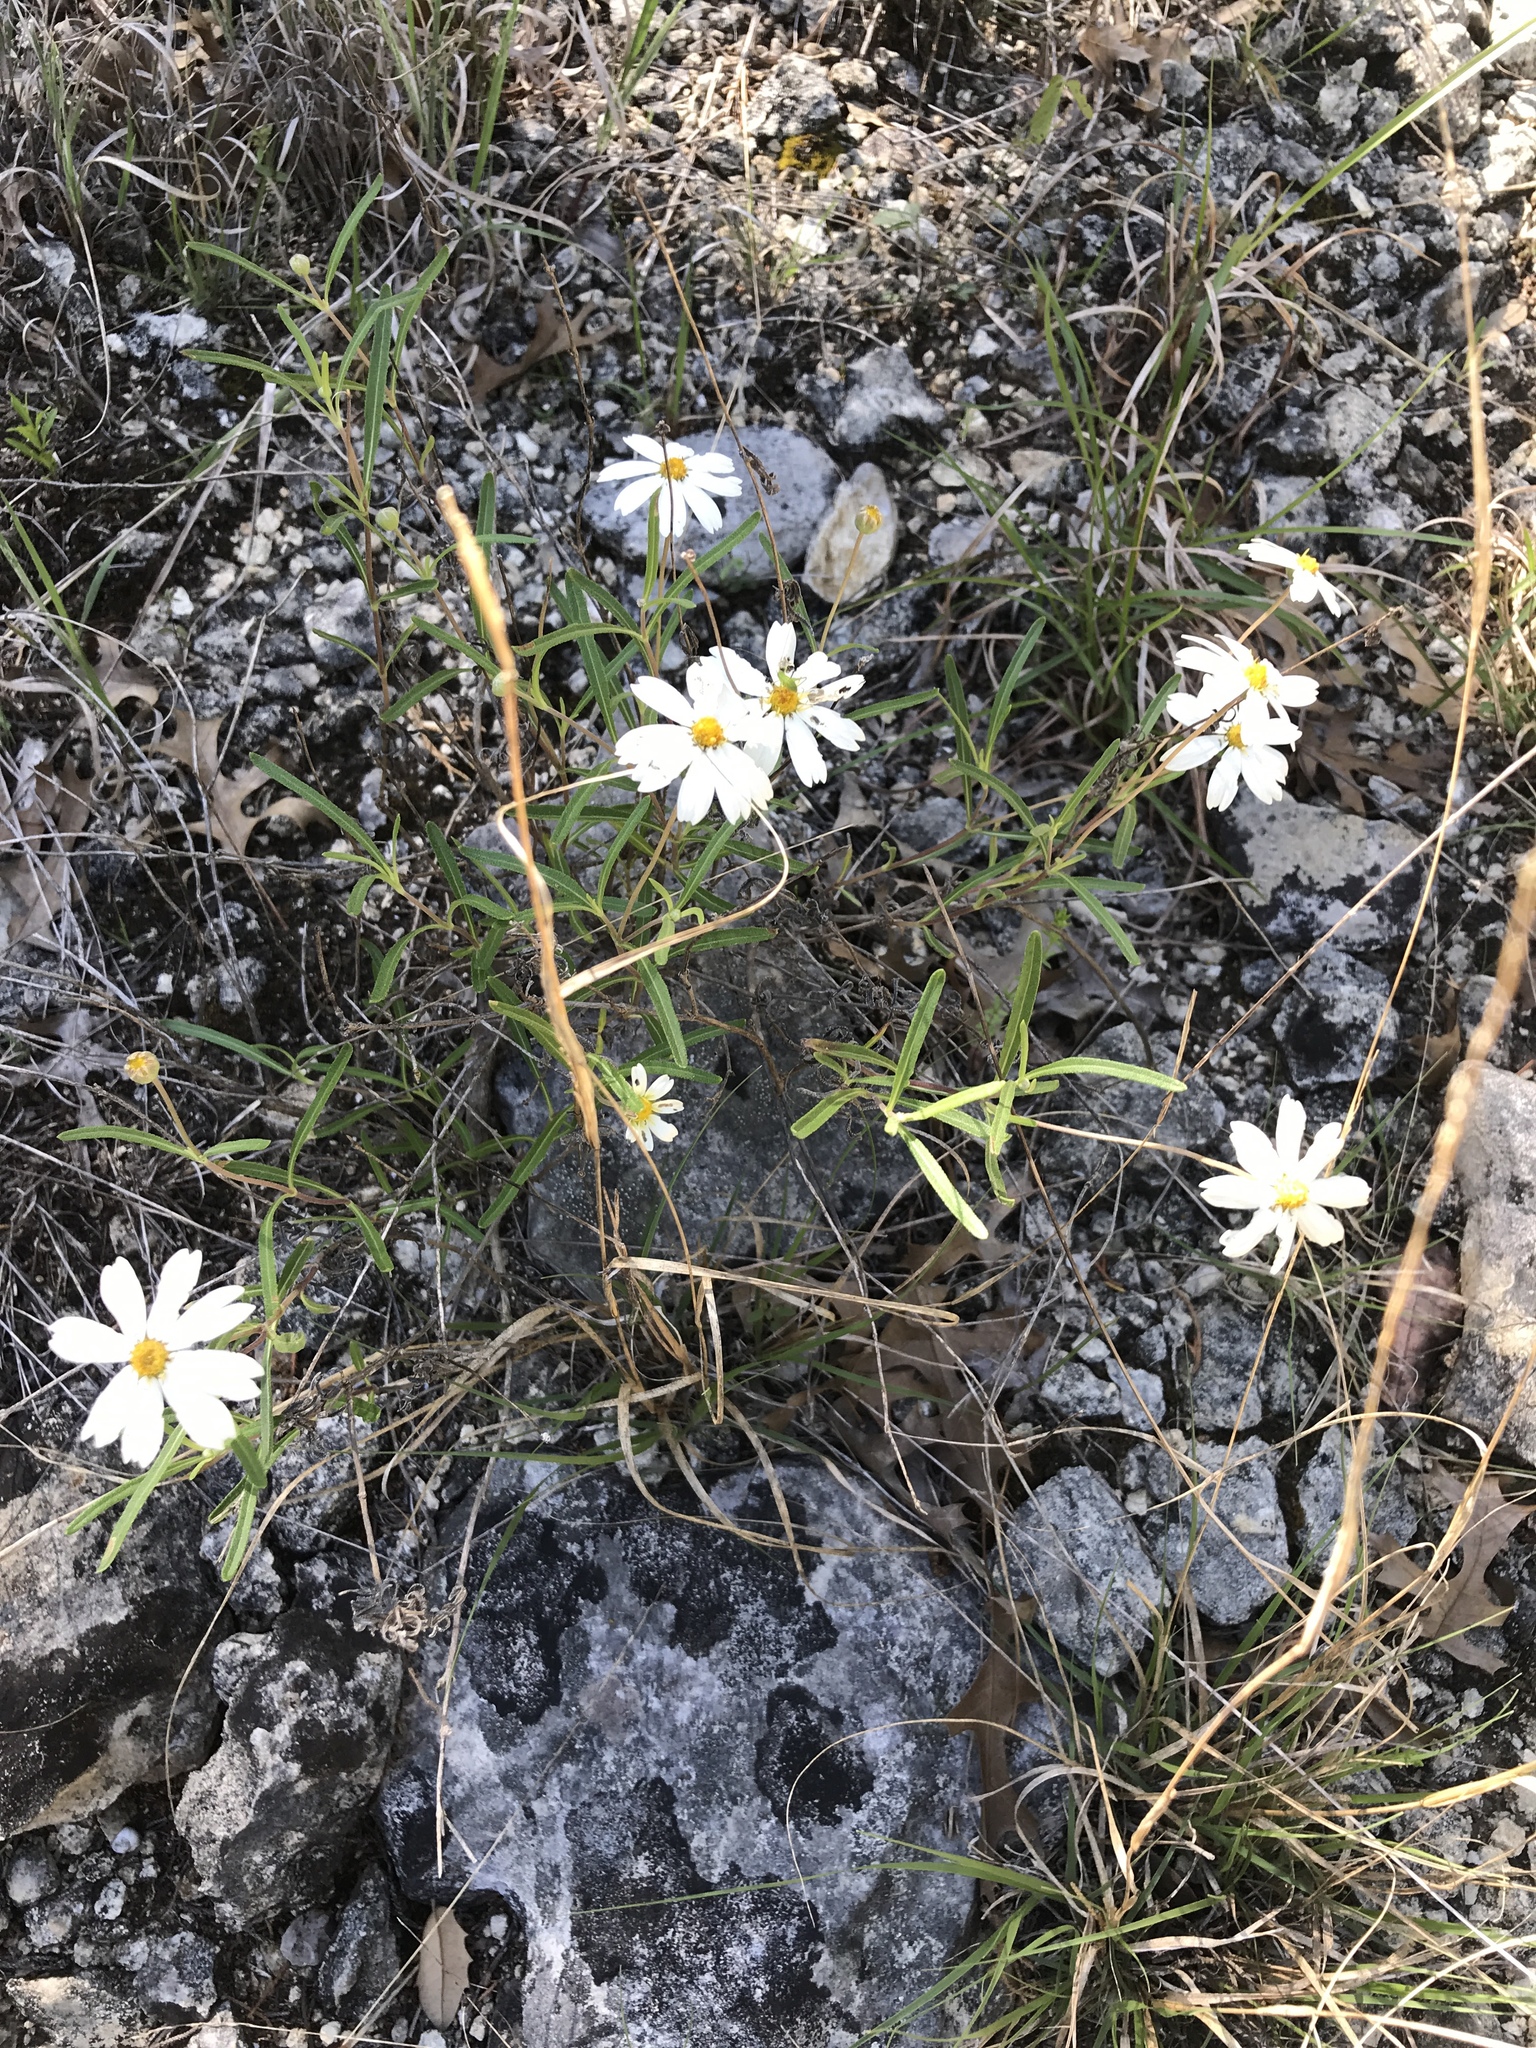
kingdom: Plantae
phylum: Tracheophyta
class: Magnoliopsida
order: Asterales
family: Asteraceae
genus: Melampodium
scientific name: Melampodium leucanthum
